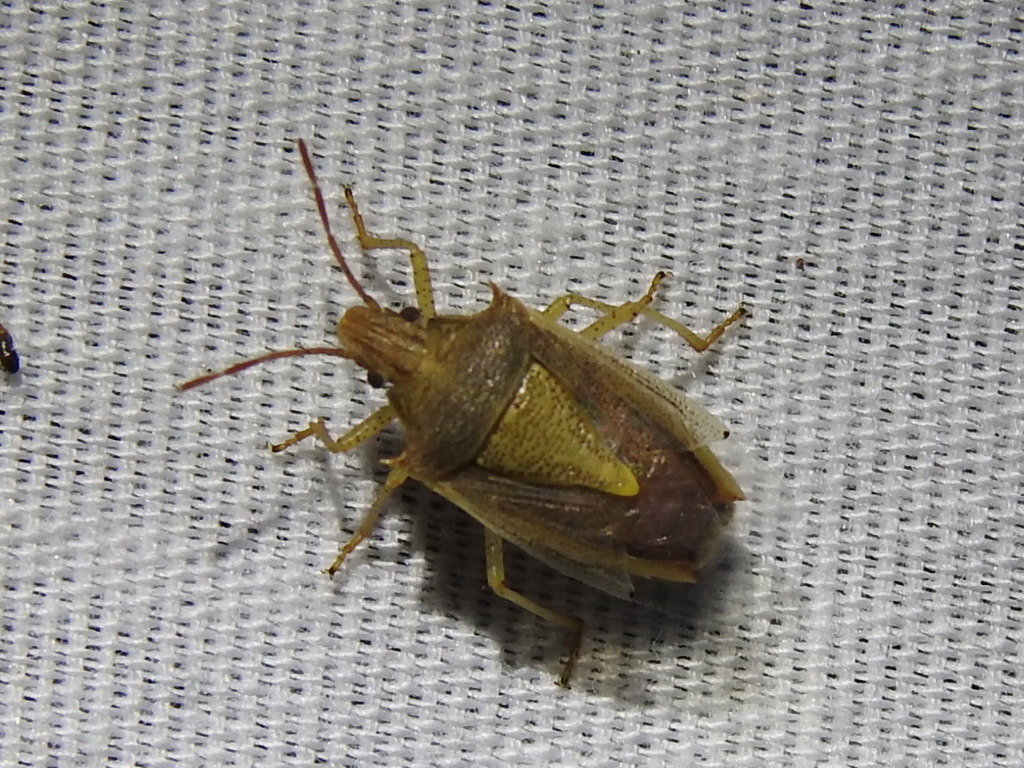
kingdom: Animalia
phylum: Arthropoda
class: Insecta
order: Hemiptera
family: Pentatomidae
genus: Oebalus
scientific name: Oebalus pugnax
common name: Rice stink bug
